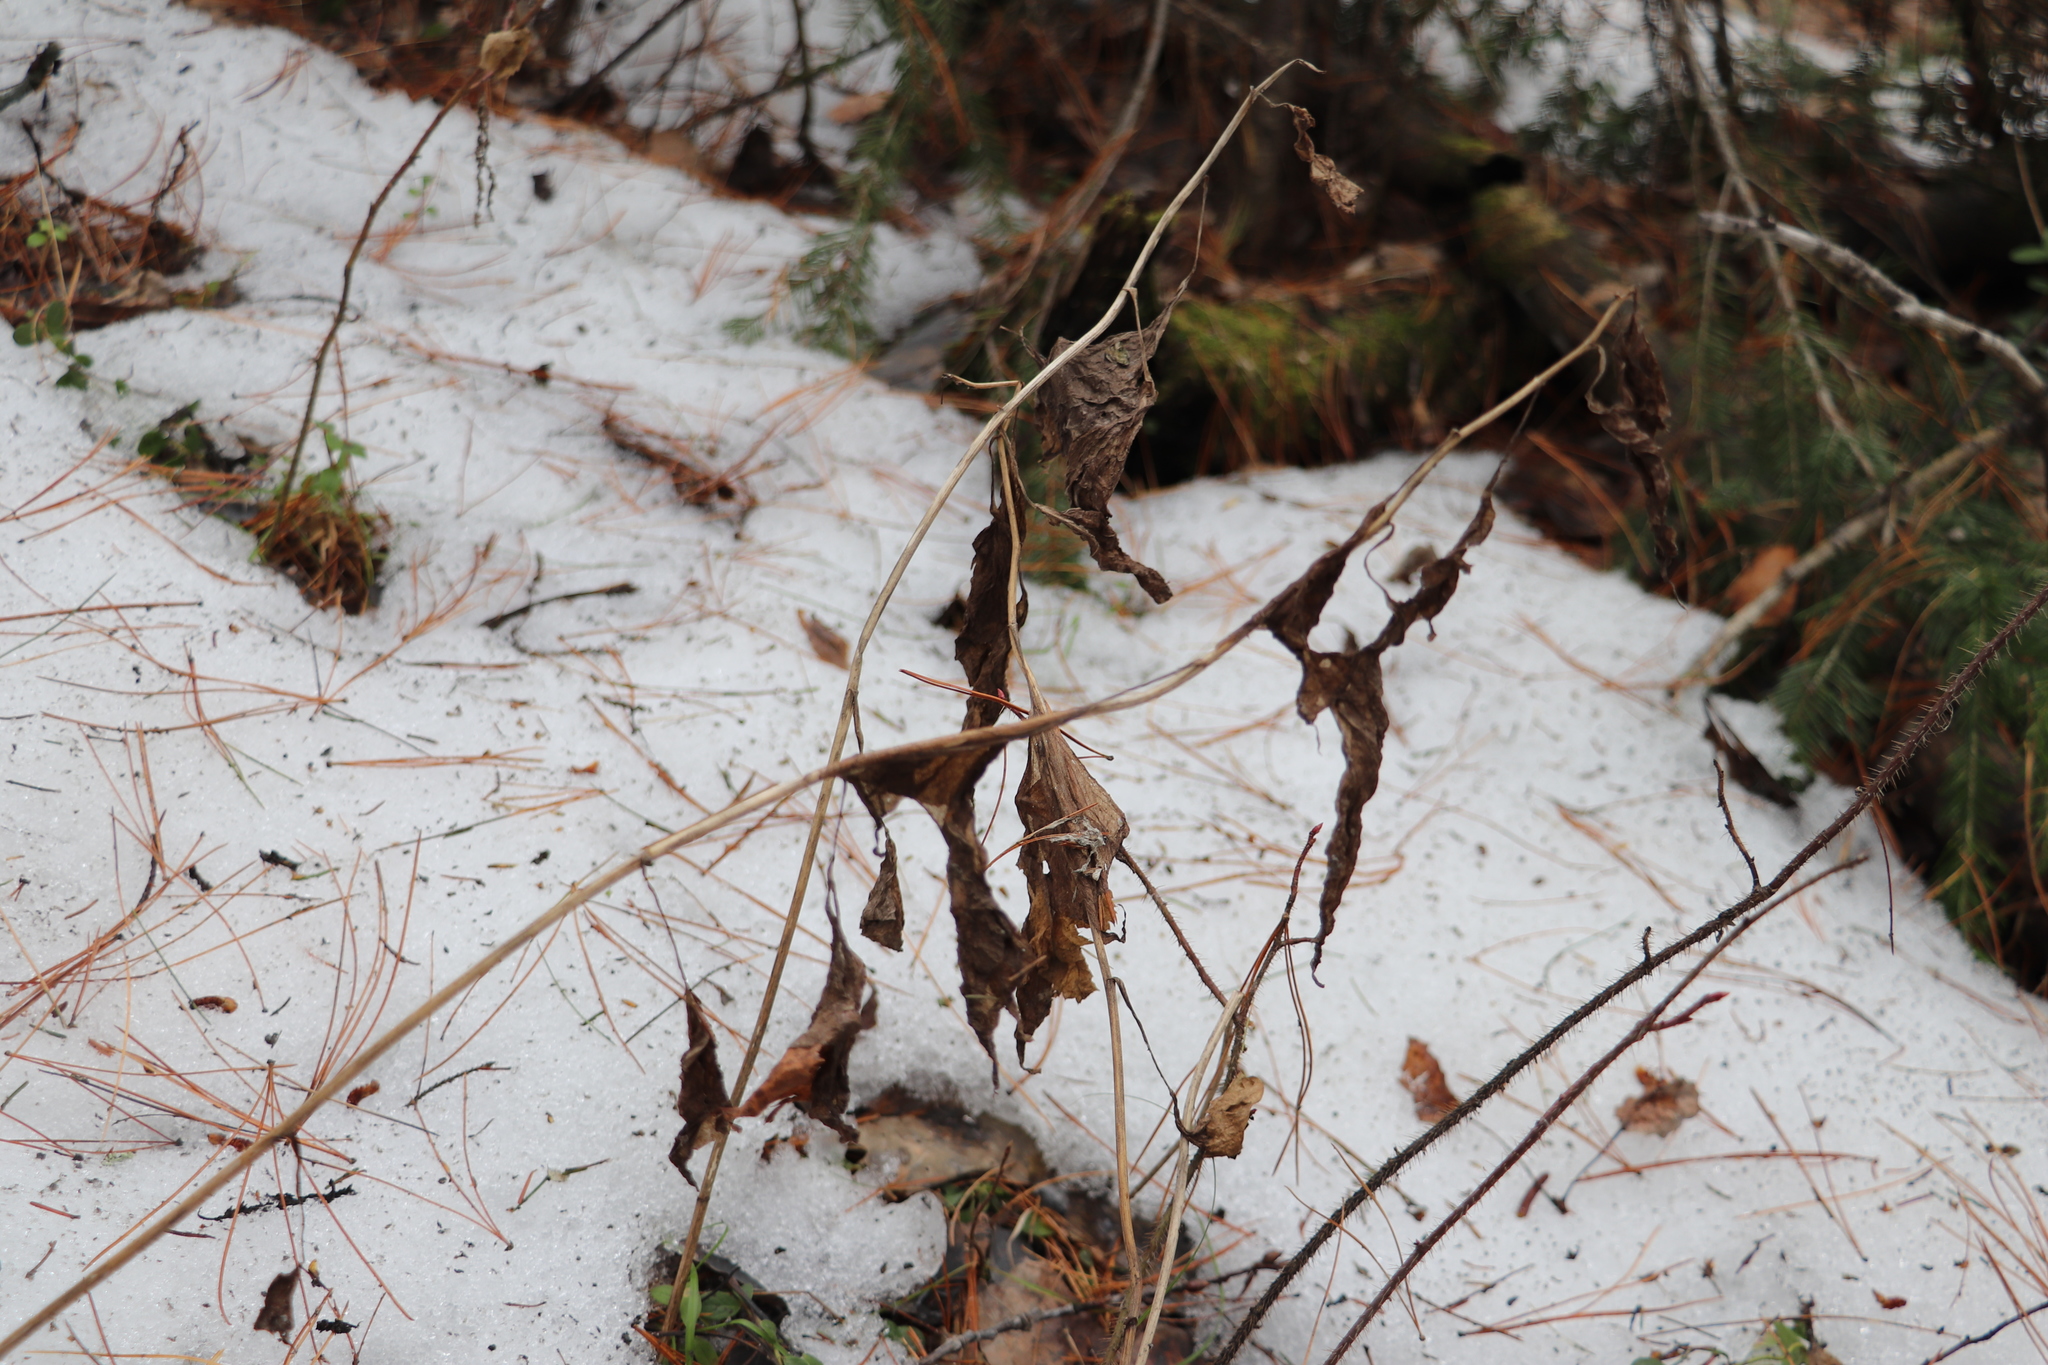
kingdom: Plantae
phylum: Tracheophyta
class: Magnoliopsida
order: Asterales
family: Asteraceae
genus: Parasenecio
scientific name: Parasenecio hastatus
